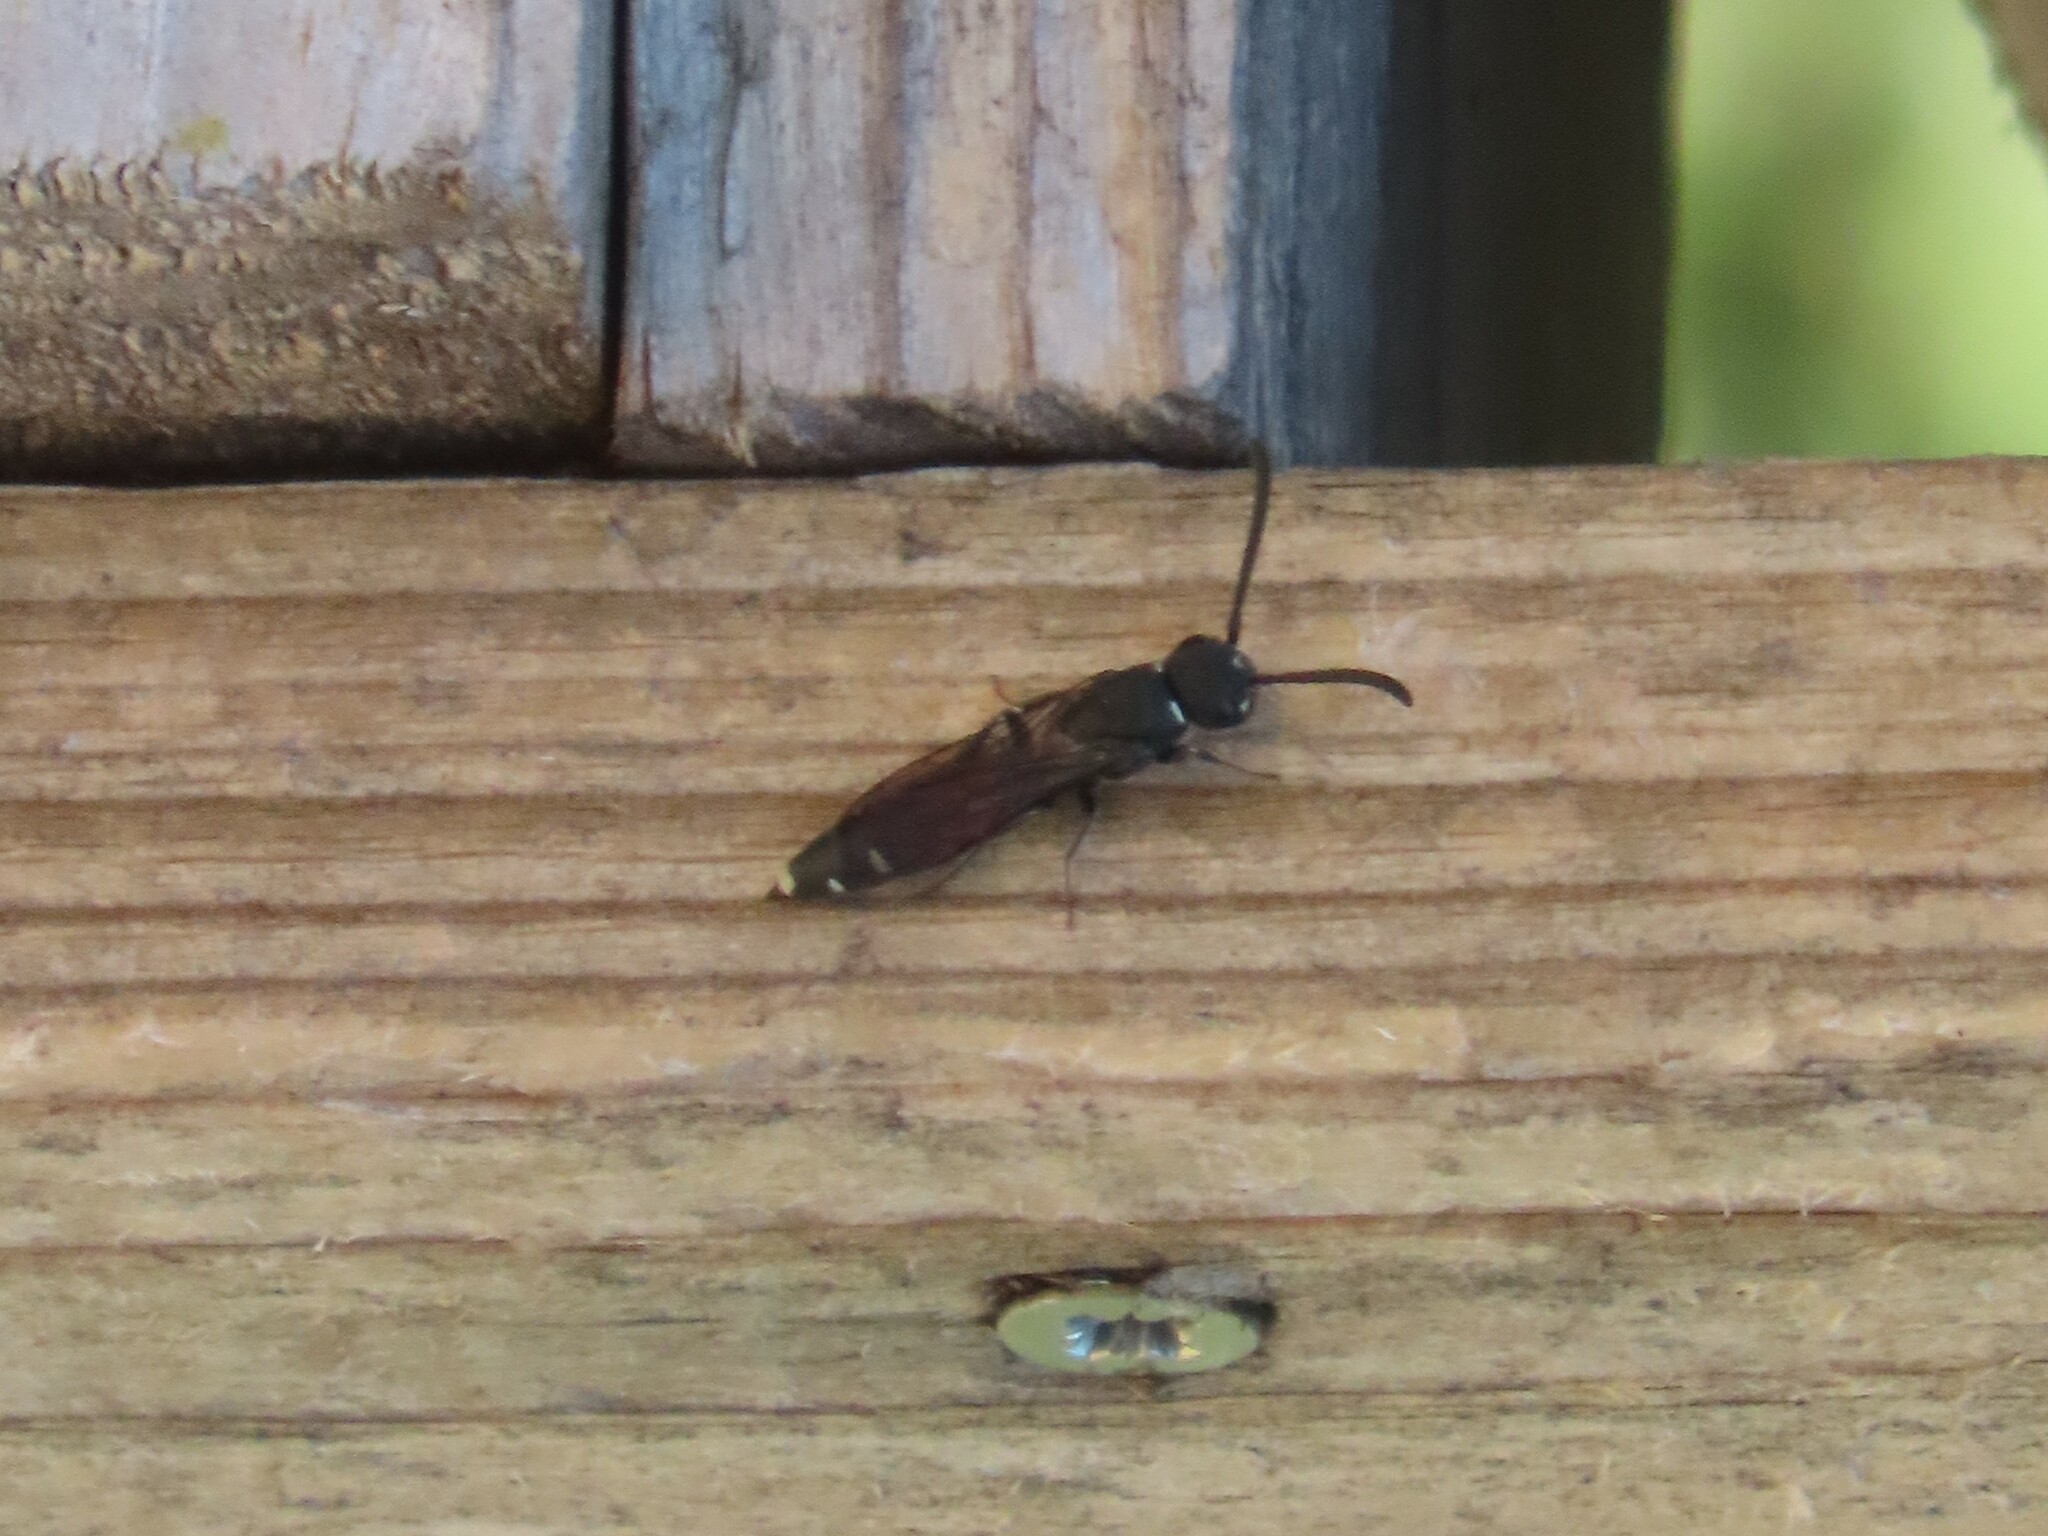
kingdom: Animalia
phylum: Arthropoda
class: Insecta
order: Hymenoptera
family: Sapygidae
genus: Sapyga
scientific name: Sapyga quinquepunctata
